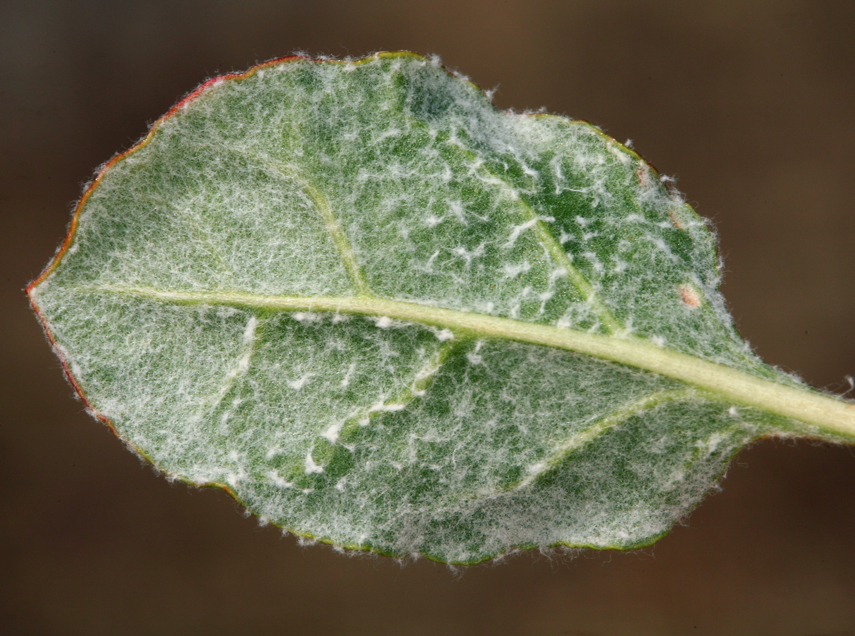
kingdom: Plantae
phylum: Tracheophyta
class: Magnoliopsida
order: Caryophyllales
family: Polygonaceae
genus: Eriogonum
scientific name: Eriogonum nudum
